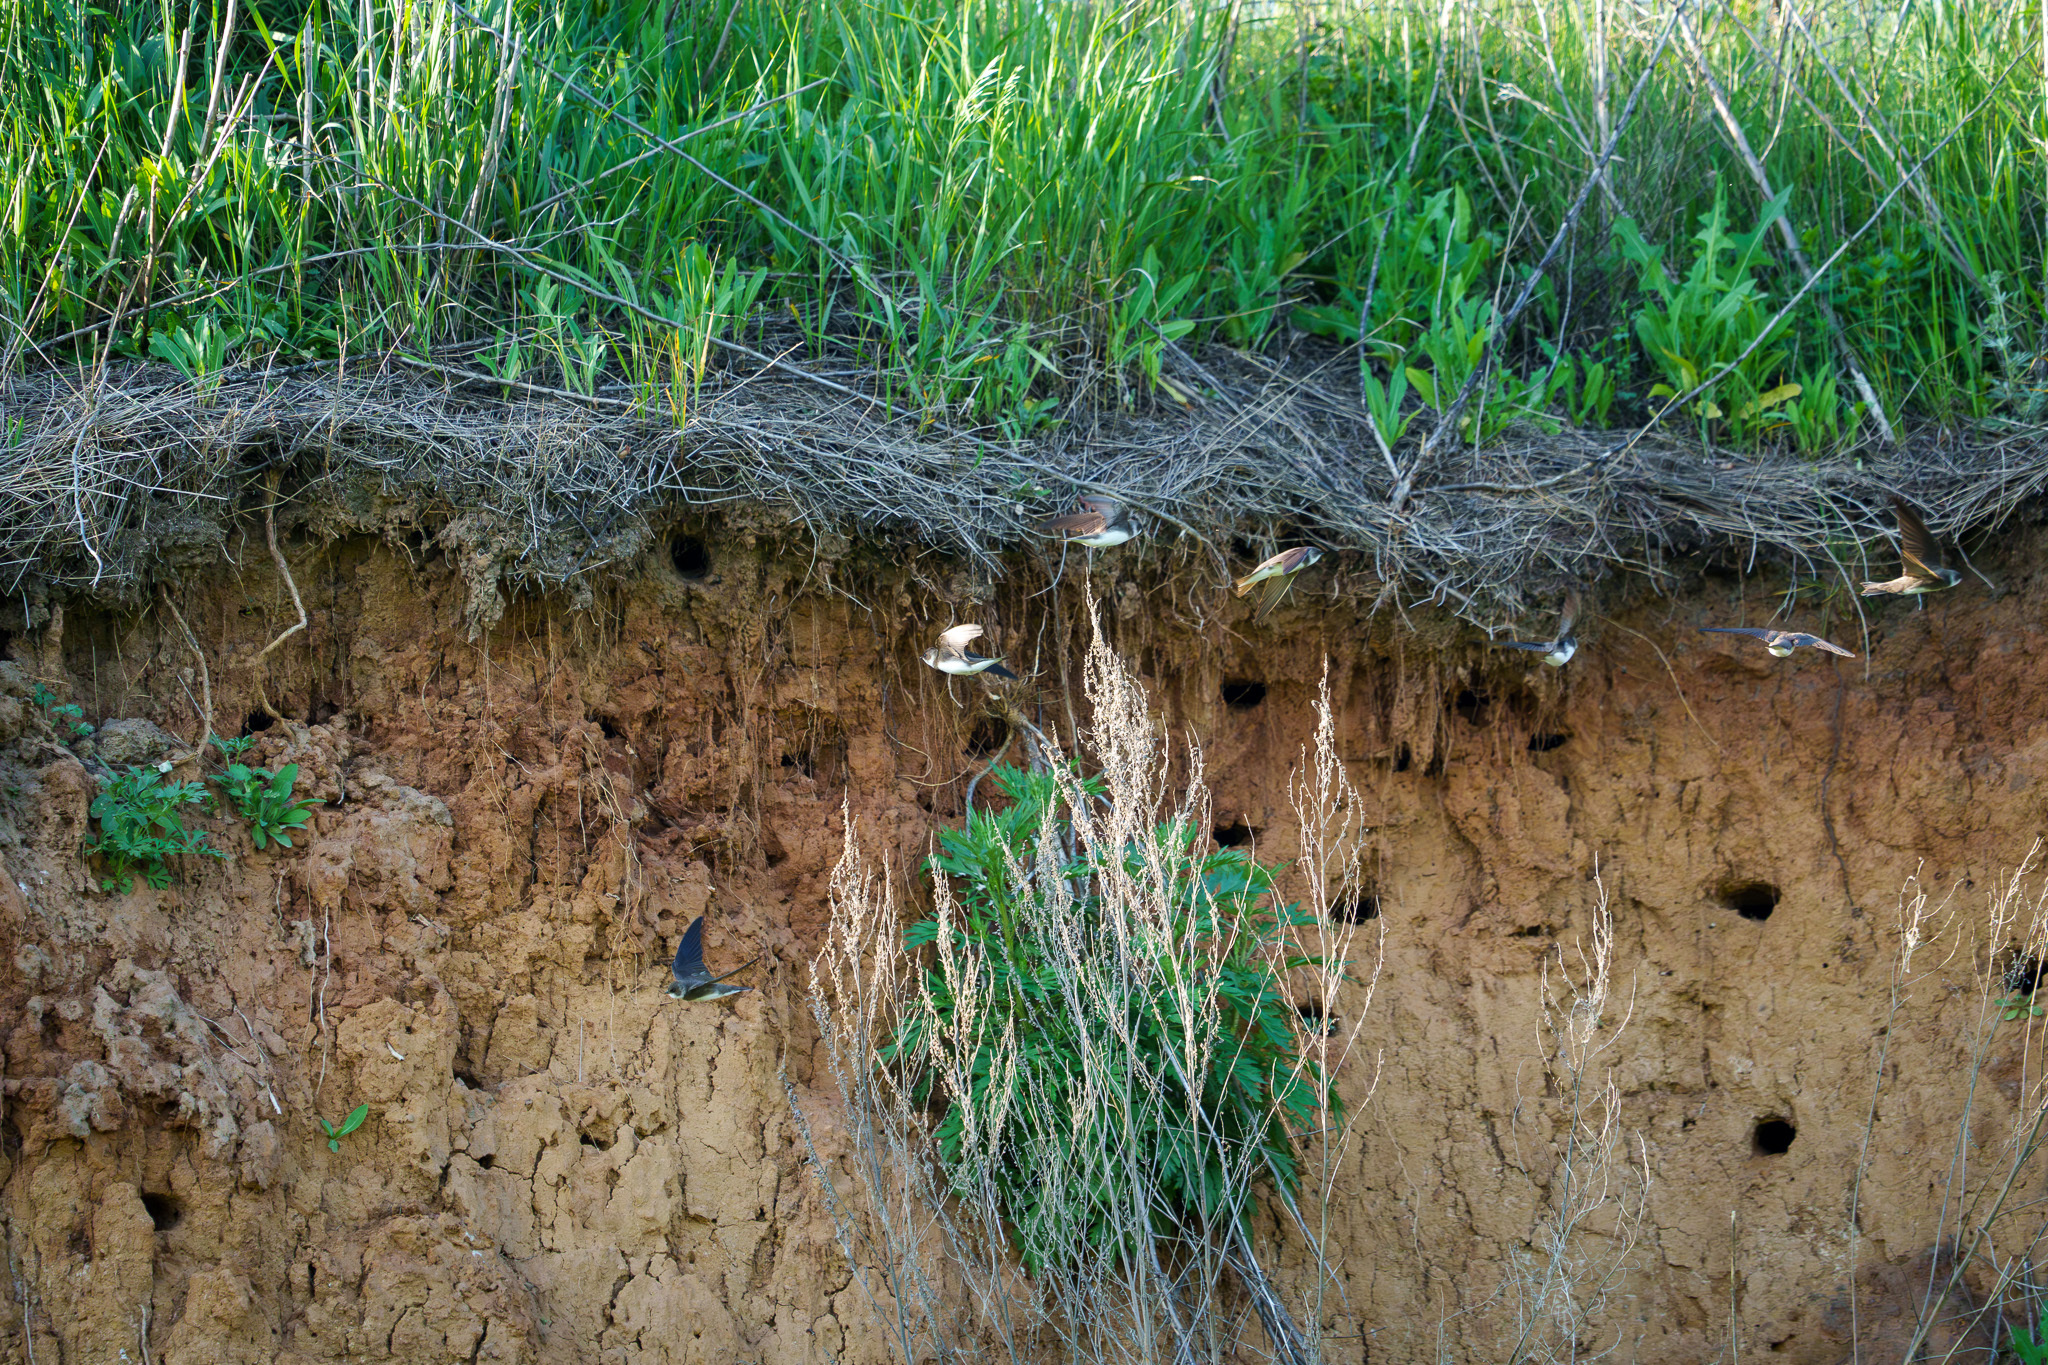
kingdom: Animalia
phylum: Chordata
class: Aves
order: Passeriformes
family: Hirundinidae
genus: Riparia
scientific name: Riparia riparia
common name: Sand martin
